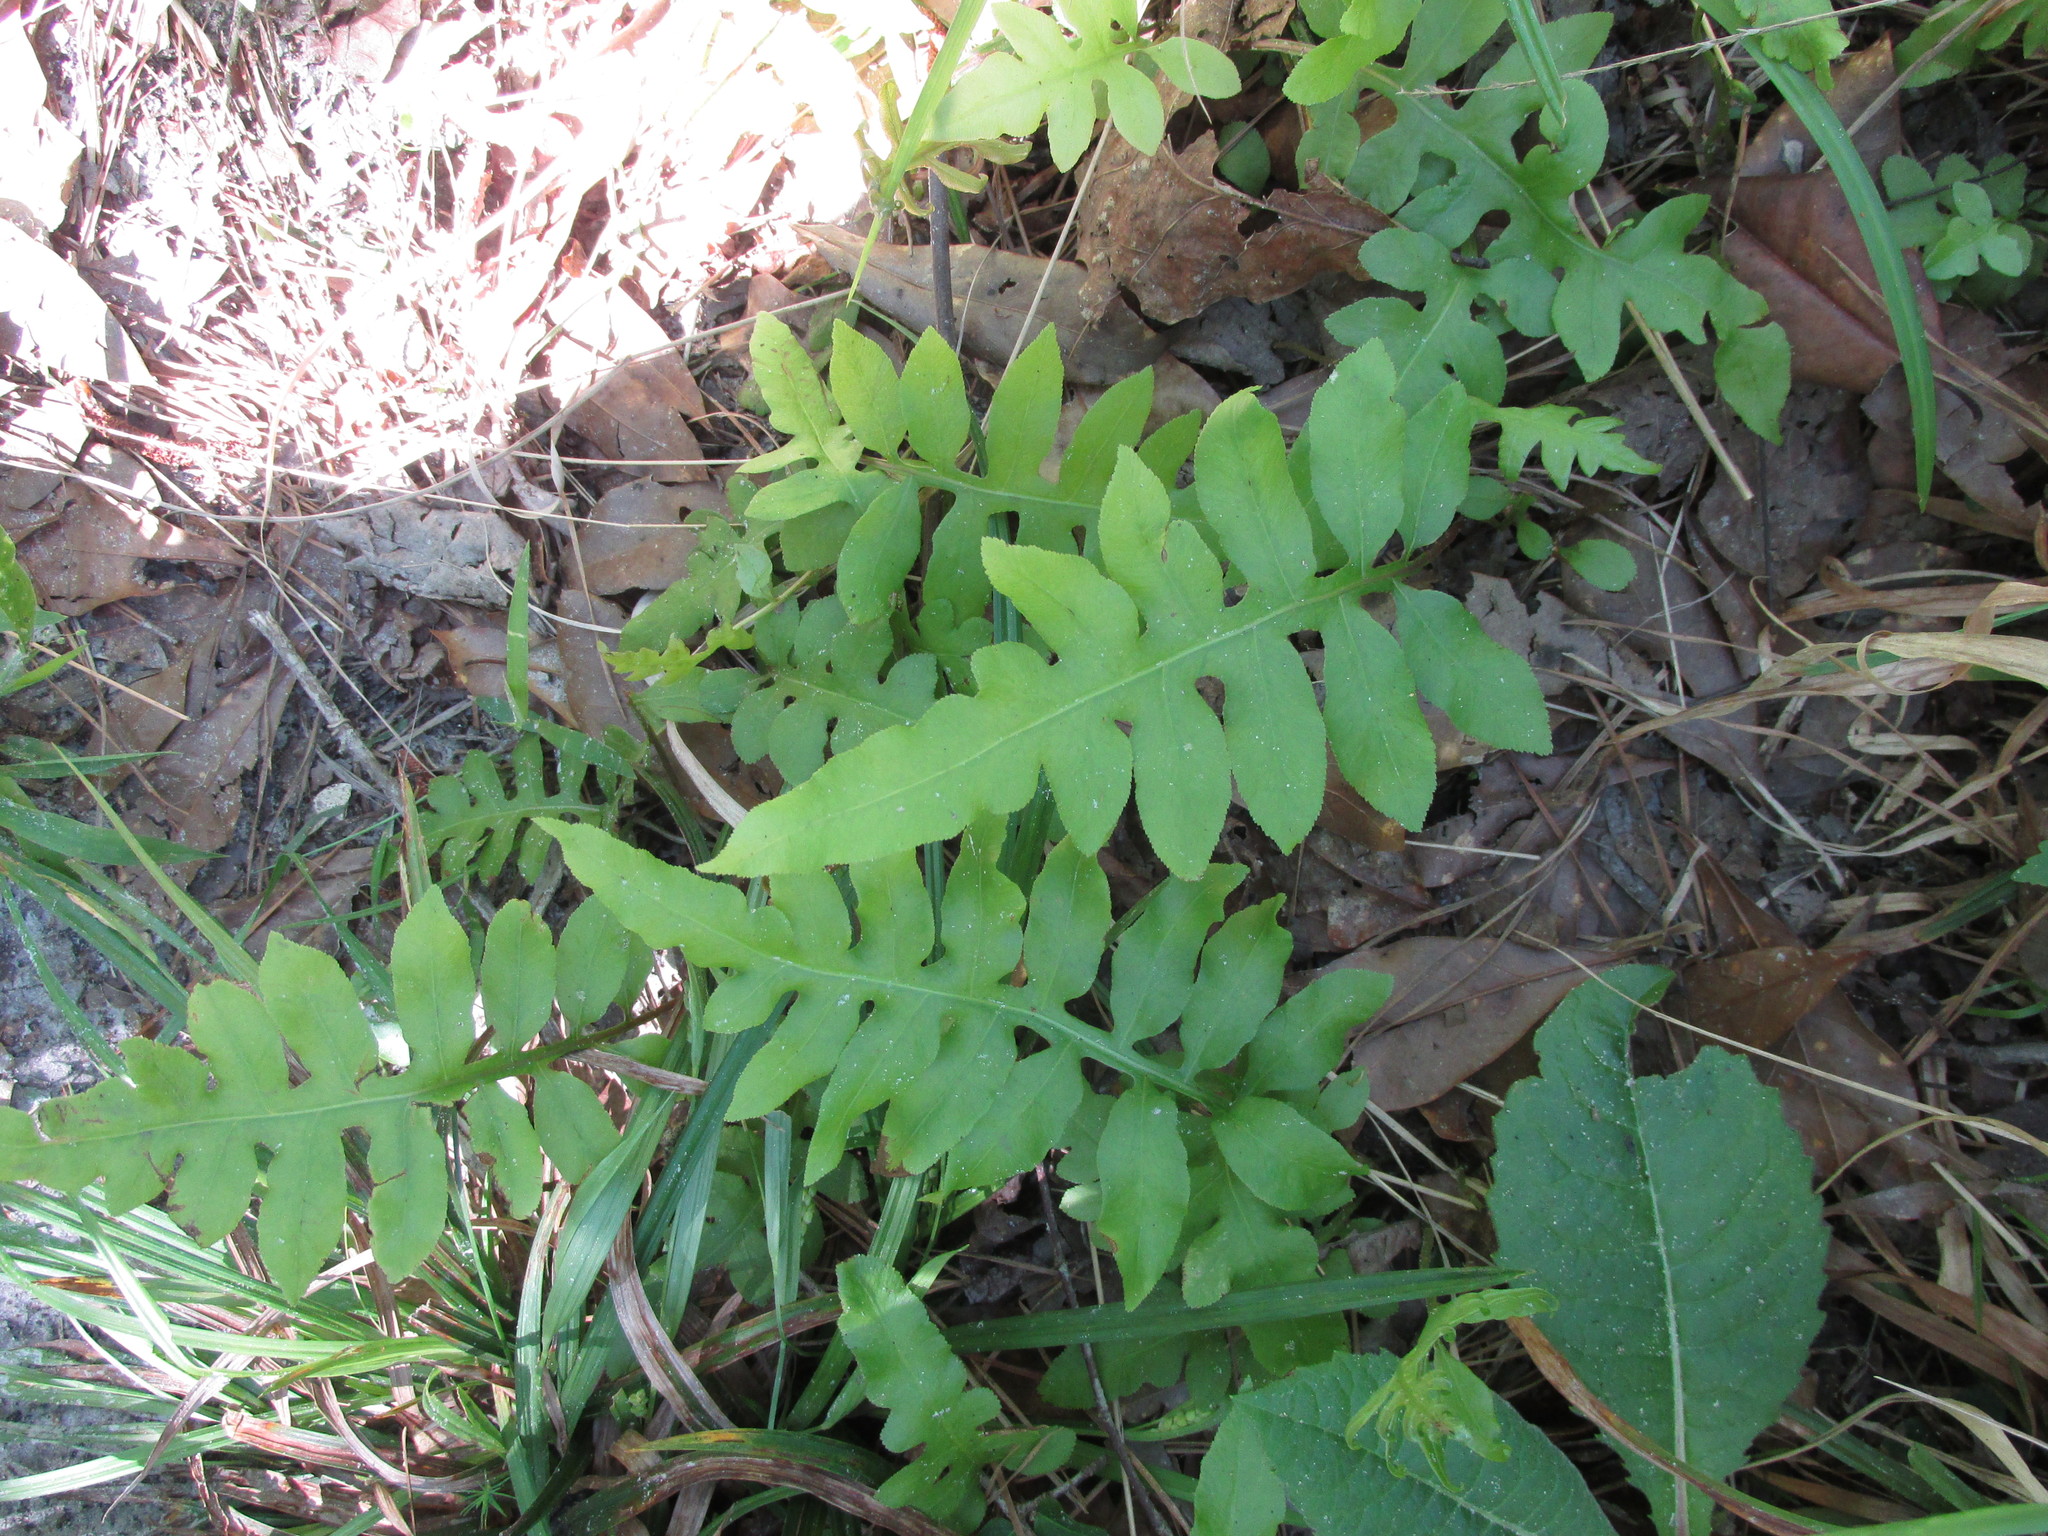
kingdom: Plantae
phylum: Tracheophyta
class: Polypodiopsida
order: Polypodiales
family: Blechnaceae
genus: Lorinseria
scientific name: Lorinseria areolata
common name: Dwarf chain fern
